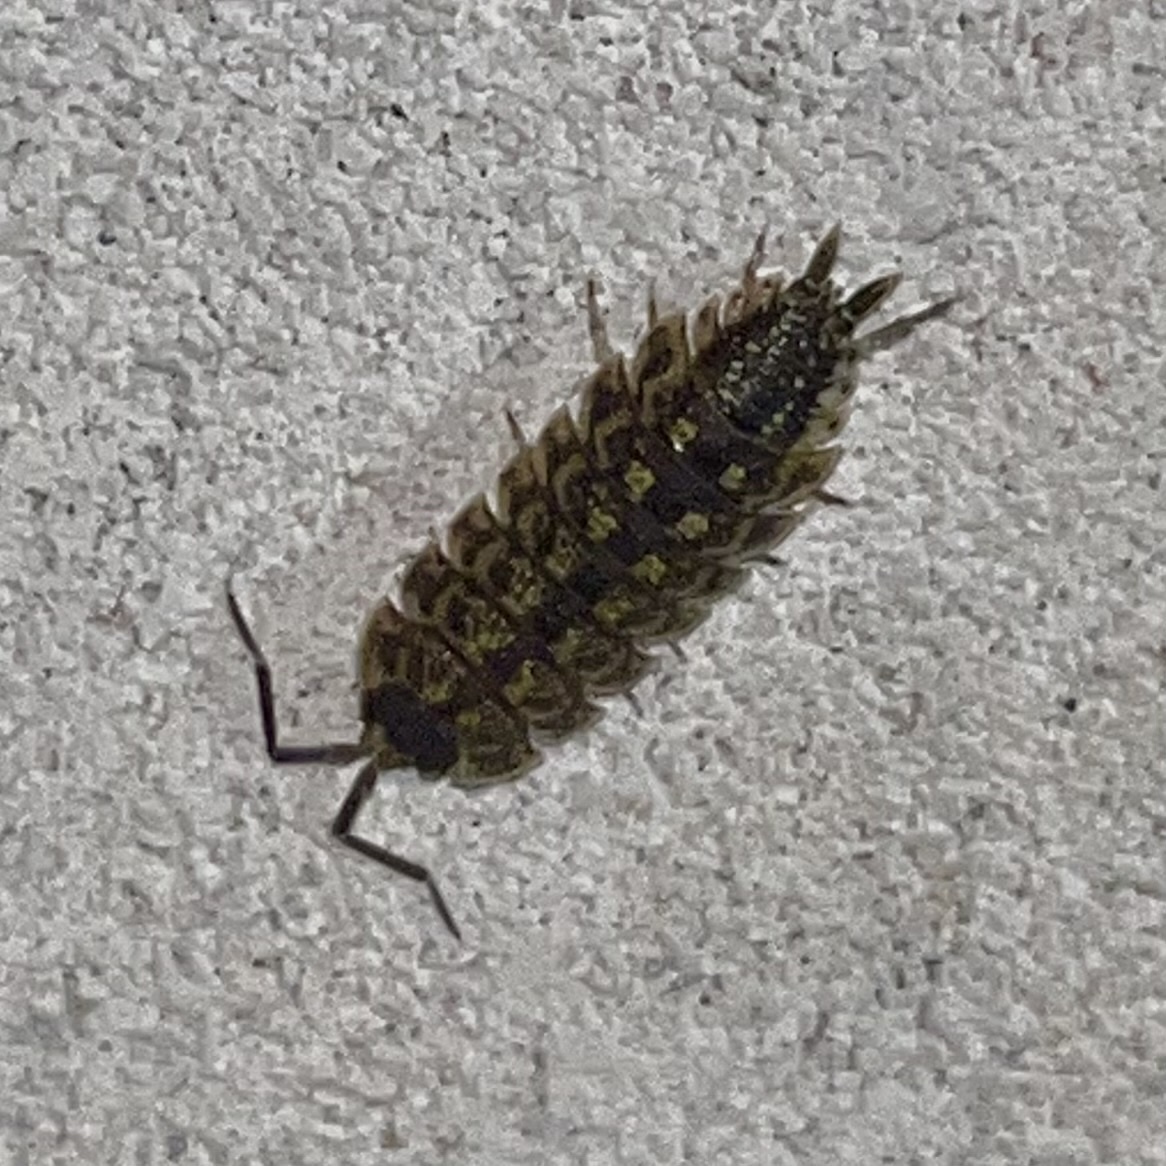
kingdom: Animalia
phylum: Arthropoda
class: Malacostraca
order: Isopoda
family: Porcellionidae
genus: Porcellio
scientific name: Porcellio spinicornis
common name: Painted woodlouse
